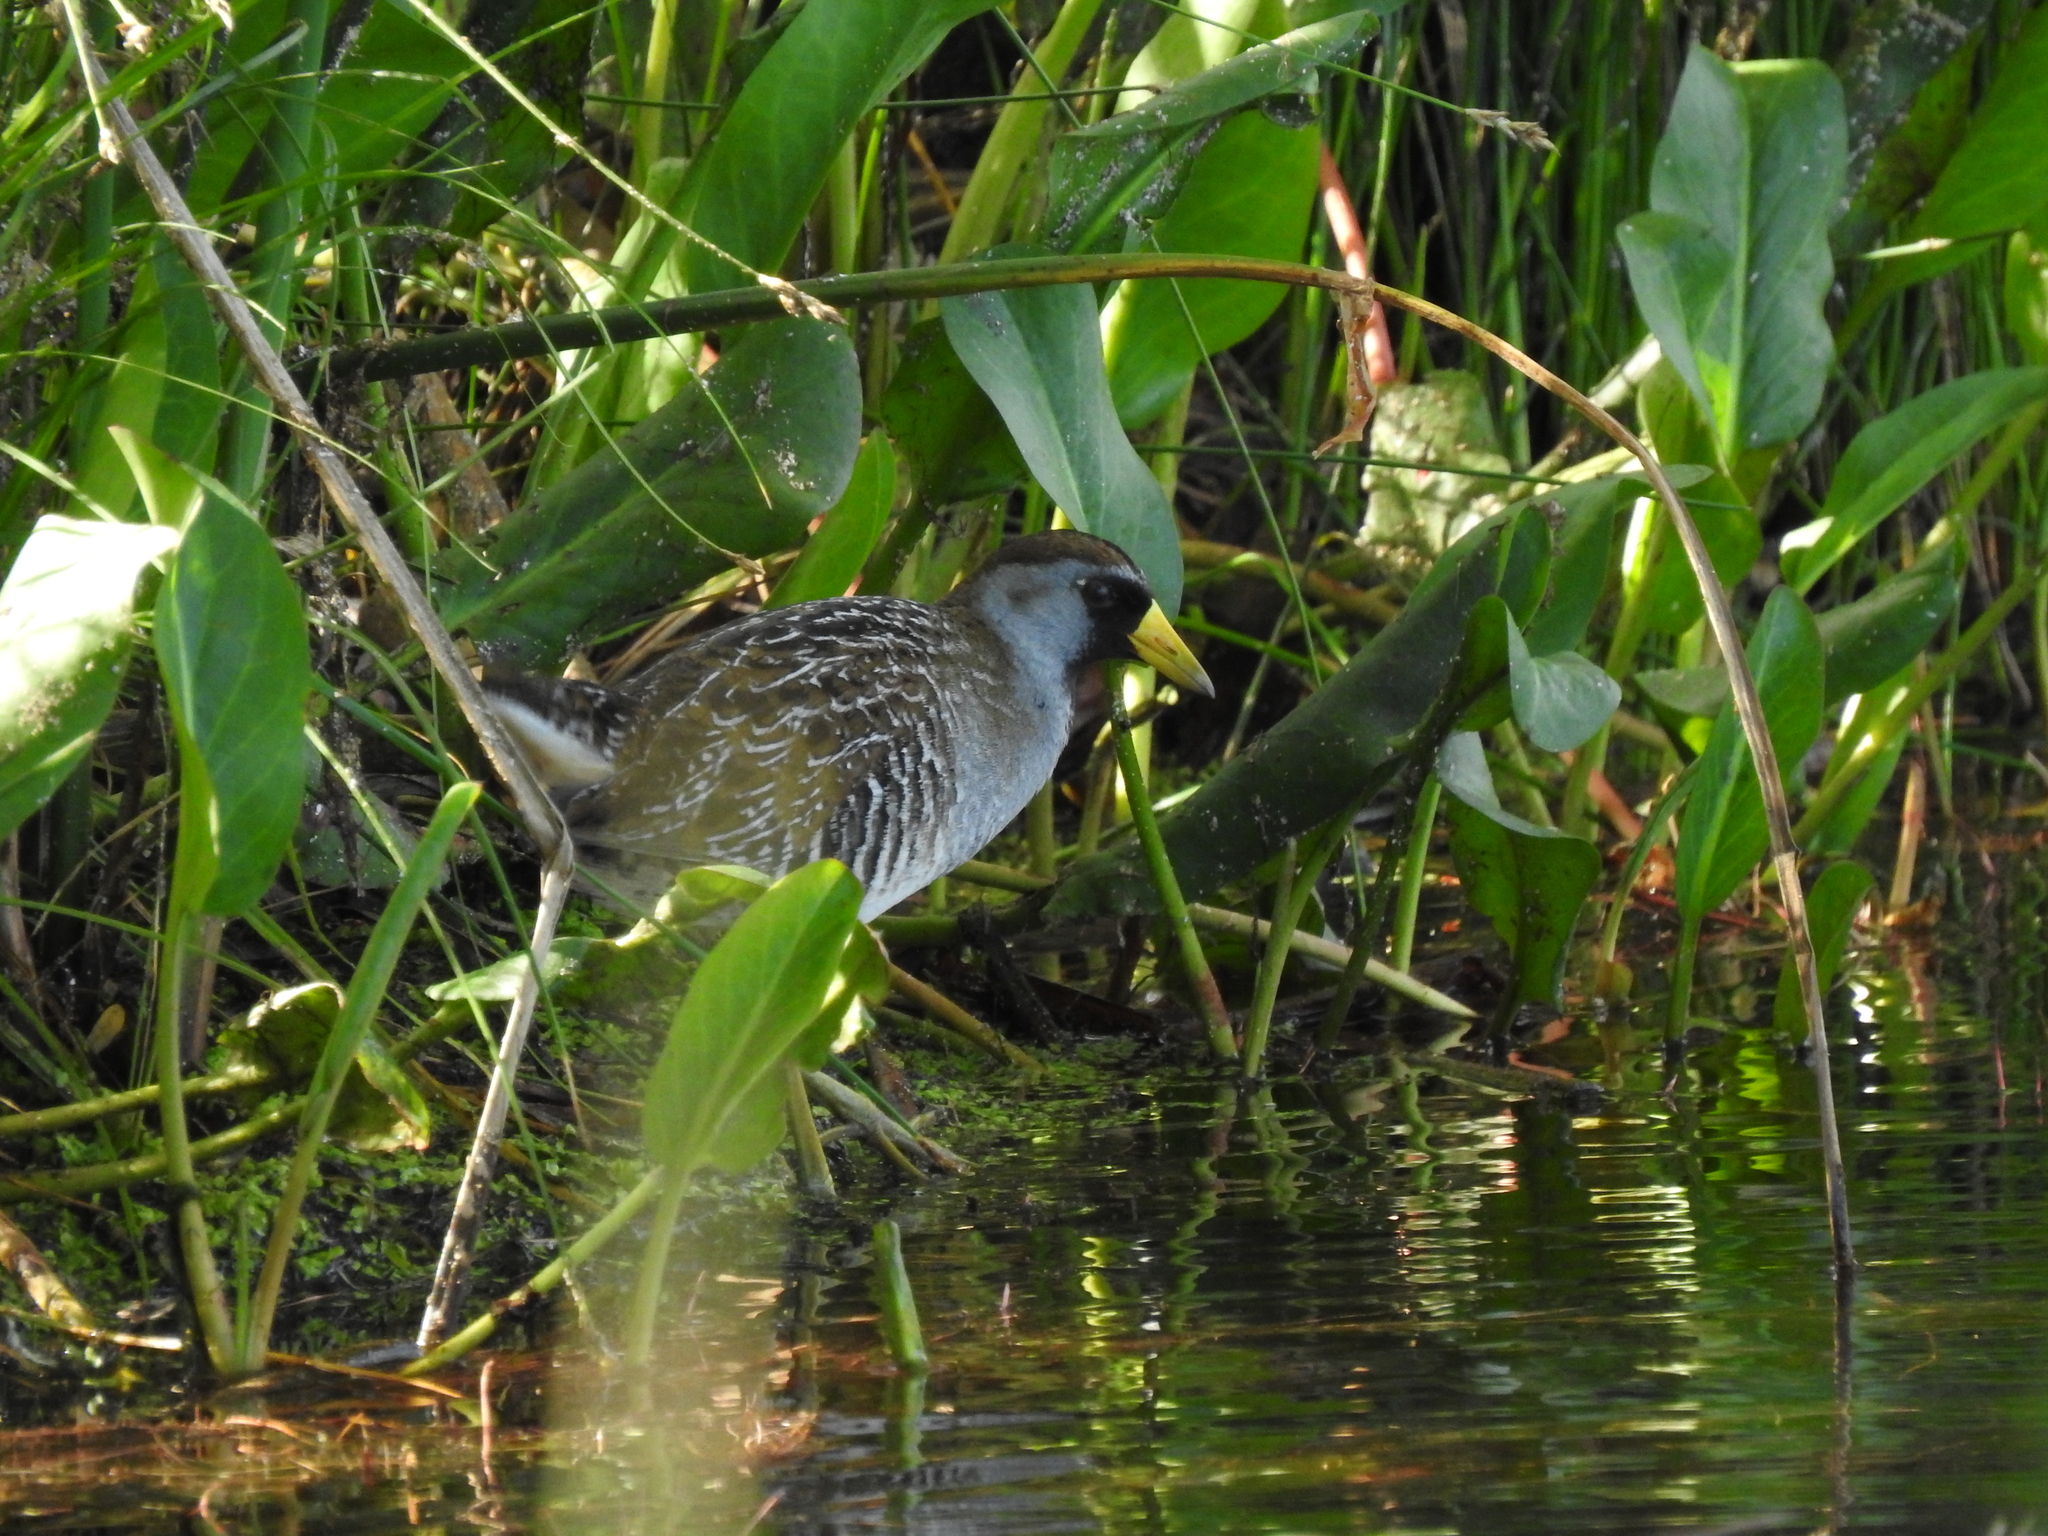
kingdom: Animalia
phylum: Chordata
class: Aves
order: Gruiformes
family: Rallidae
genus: Porzana
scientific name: Porzana carolina
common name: Sora
